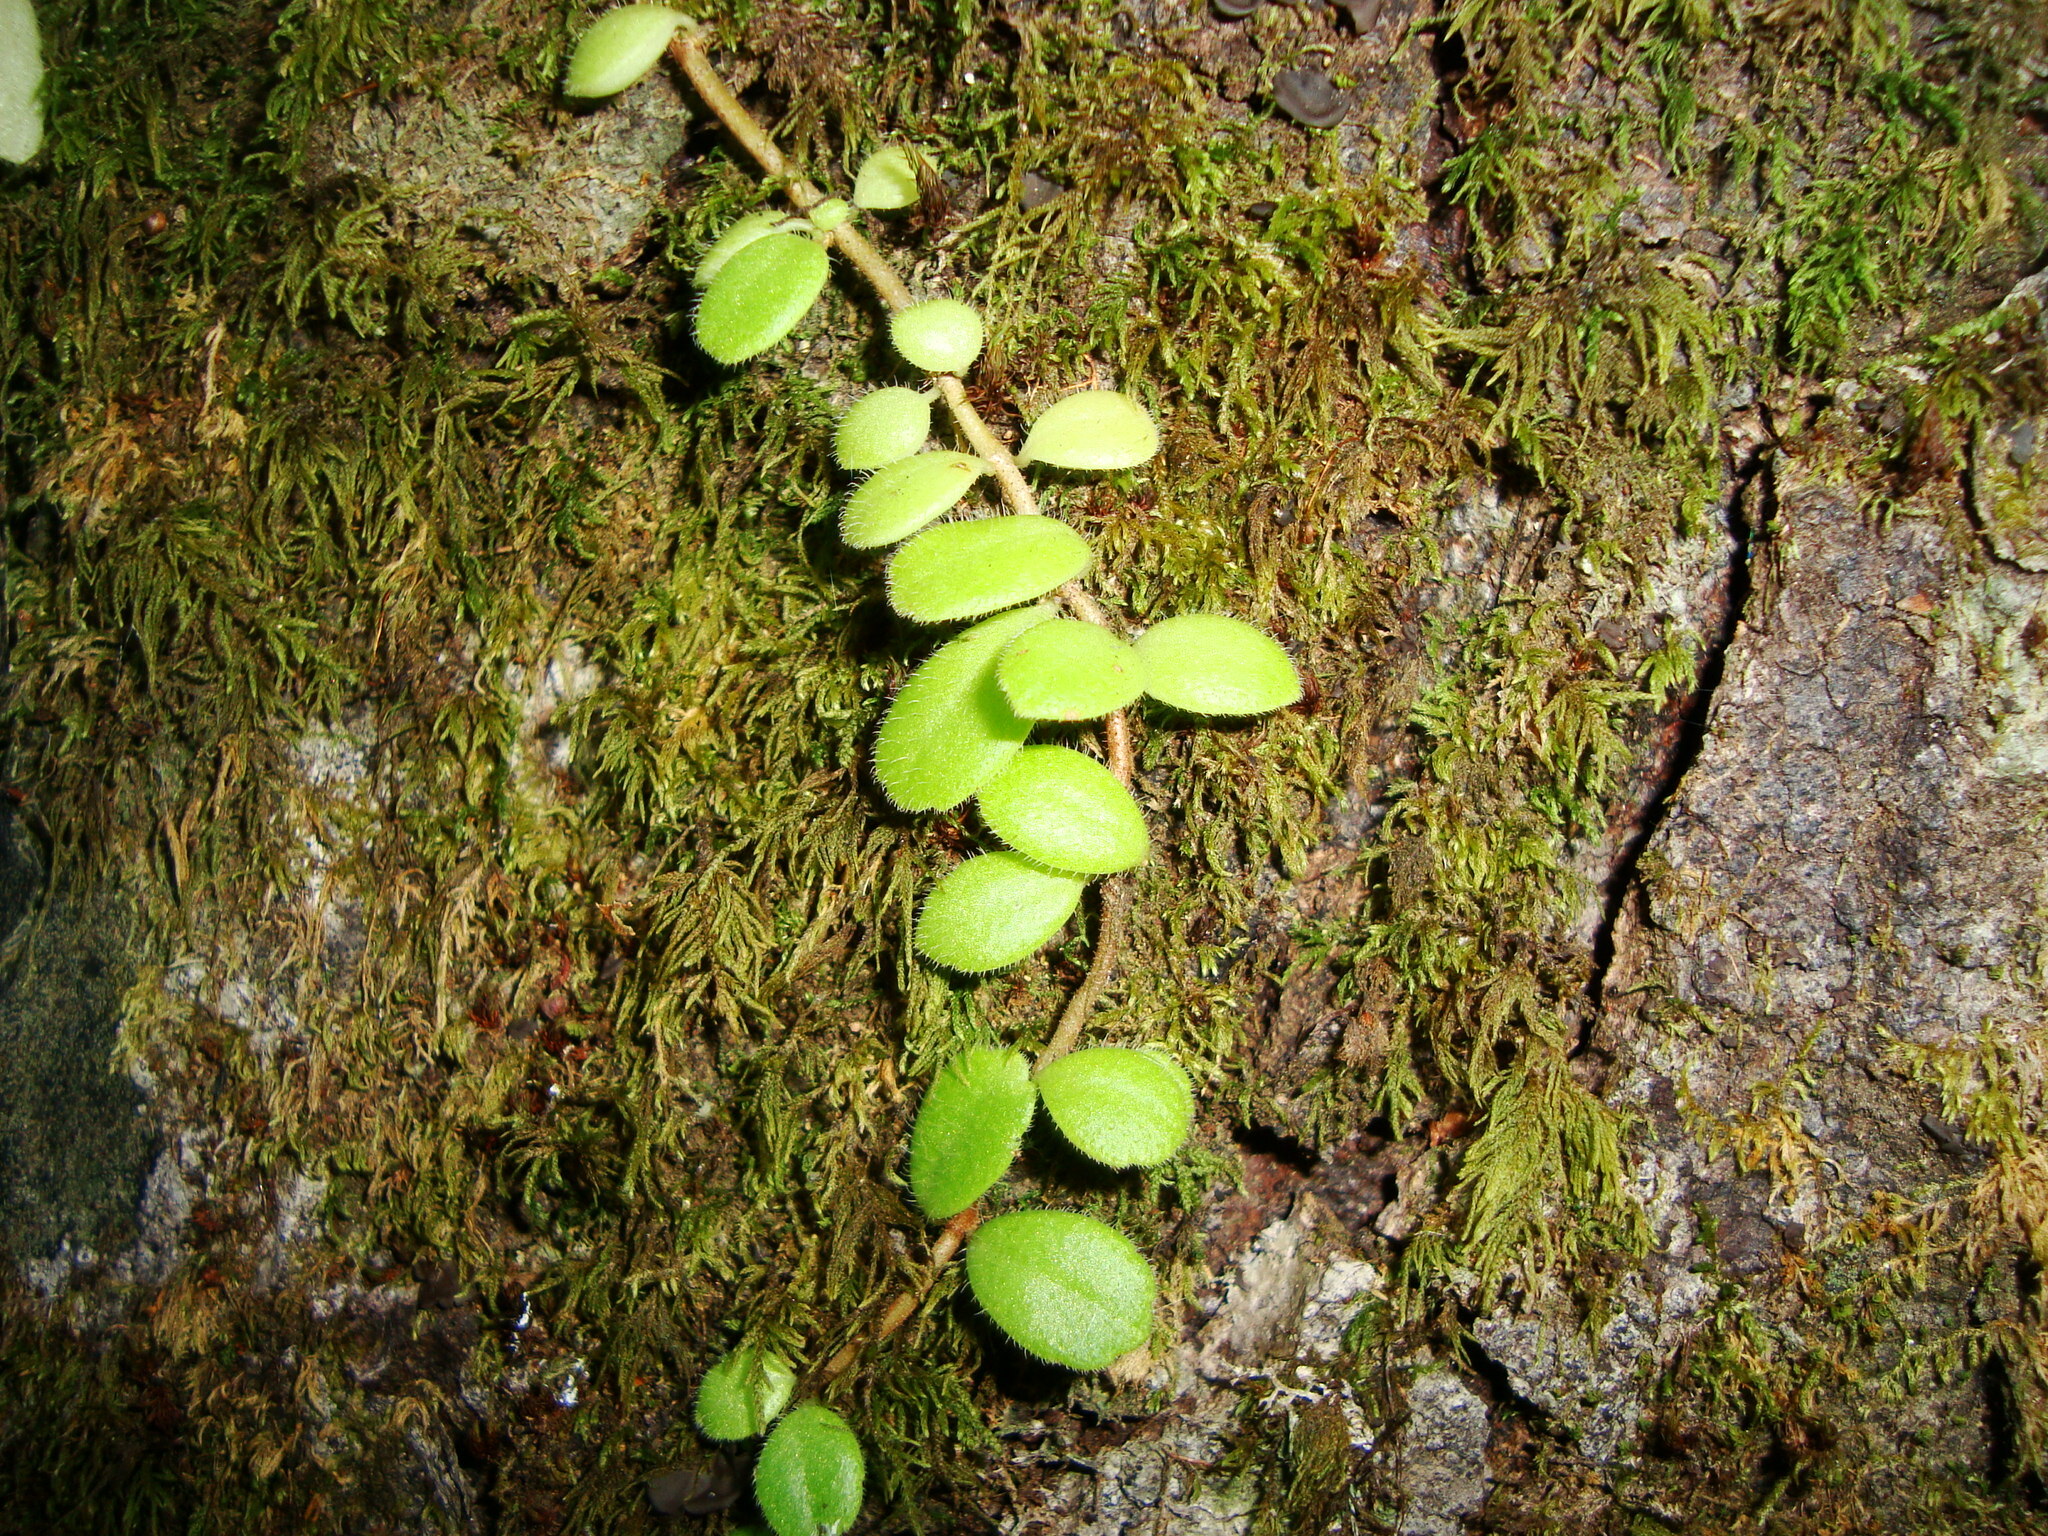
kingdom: Plantae
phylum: Tracheophyta
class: Magnoliopsida
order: Lamiales
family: Gesneriaceae
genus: Sarmienta
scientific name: Sarmienta scandens
